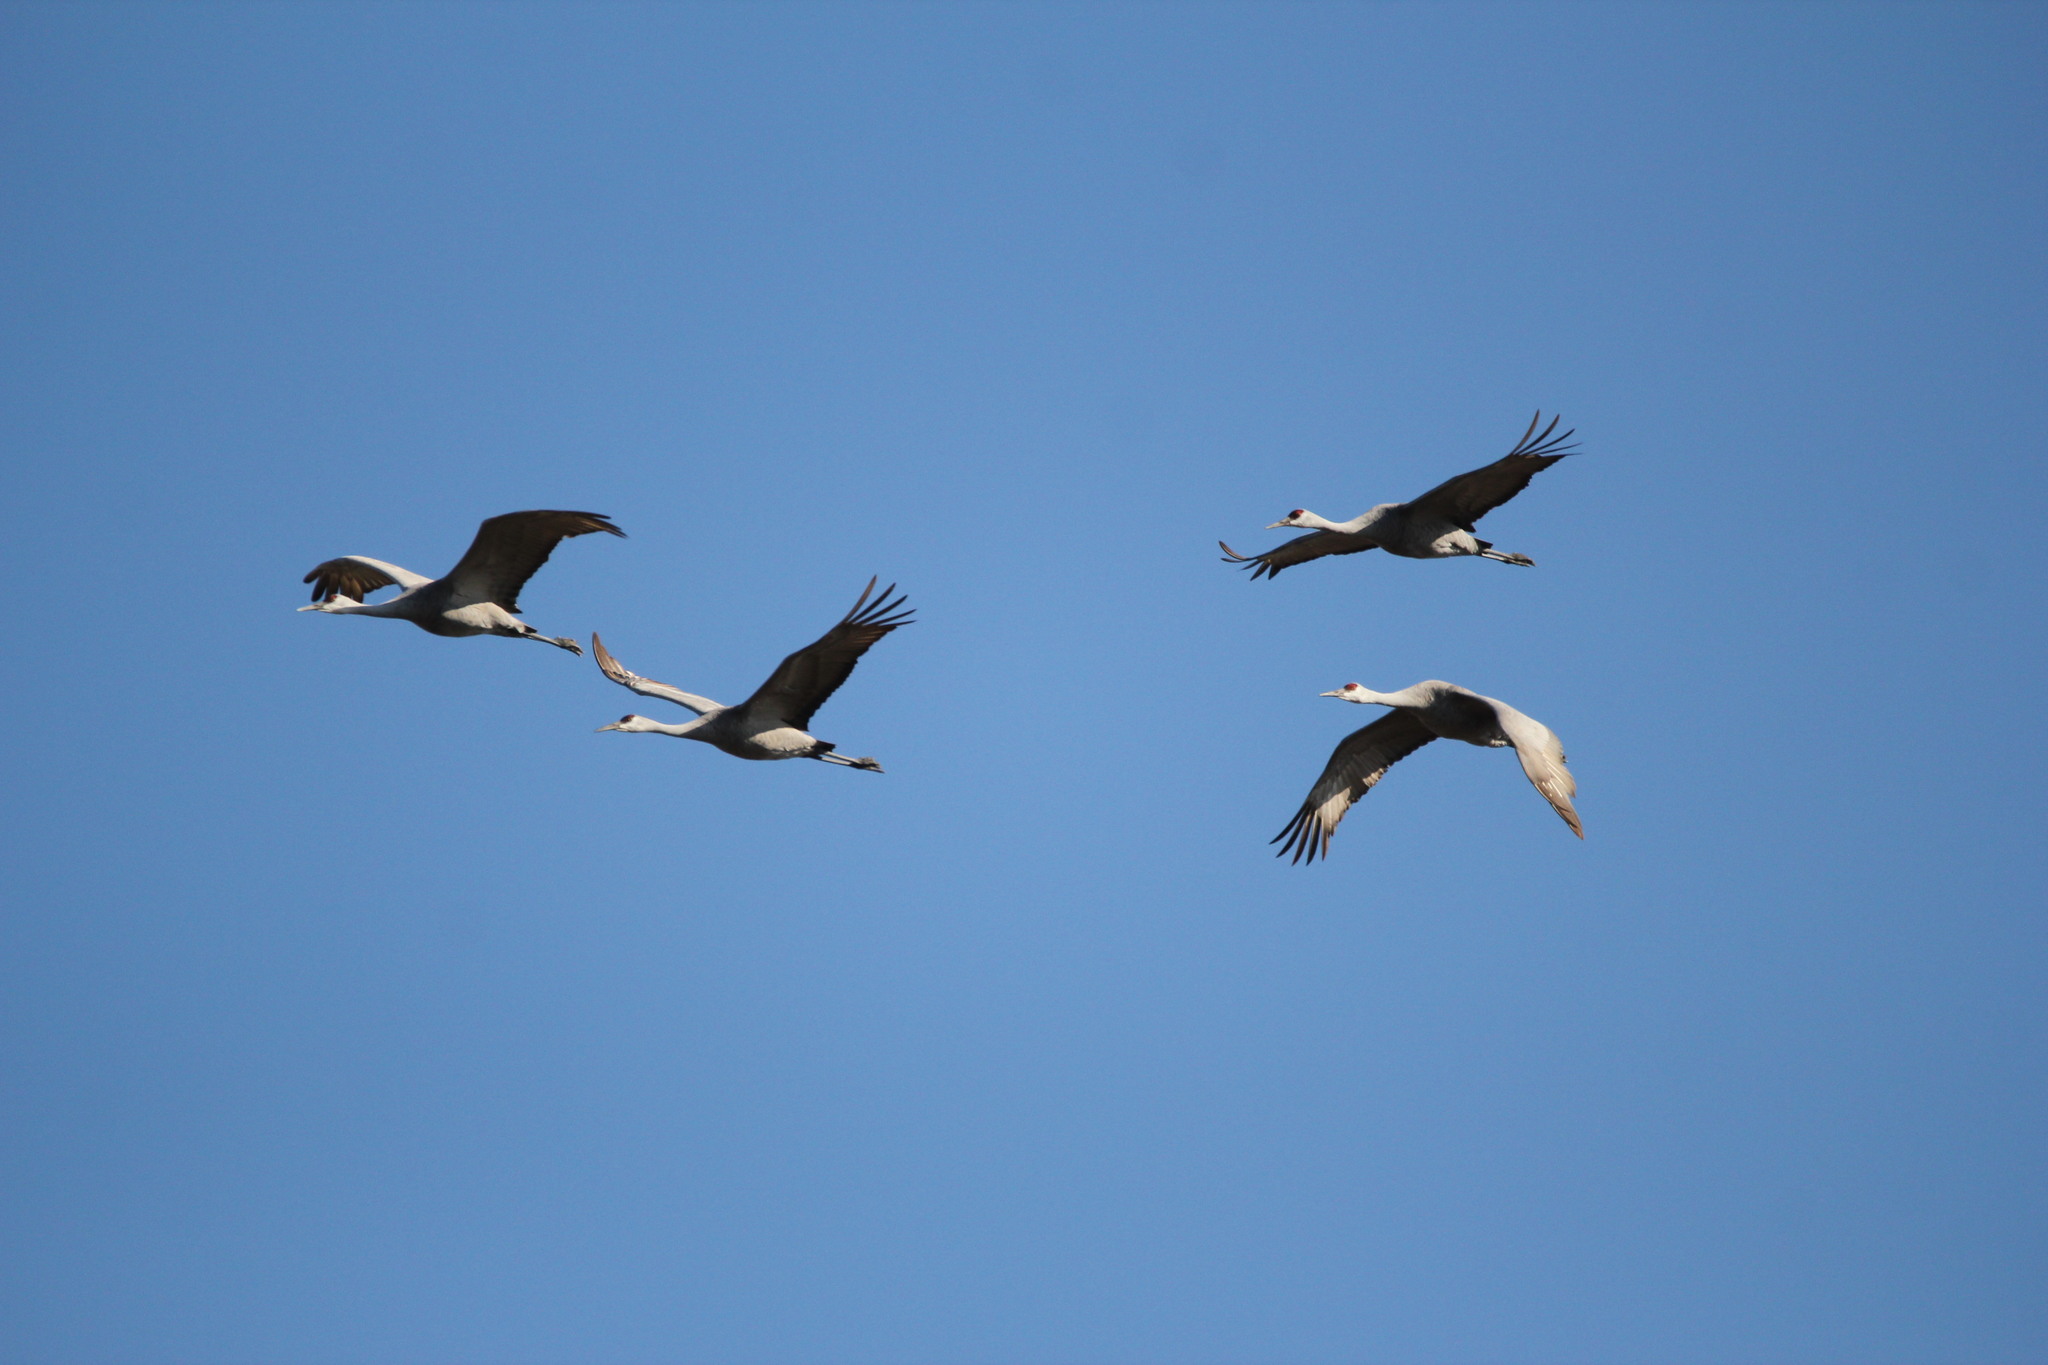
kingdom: Animalia
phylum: Chordata
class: Aves
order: Gruiformes
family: Gruidae
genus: Grus
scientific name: Grus canadensis
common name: Sandhill crane
